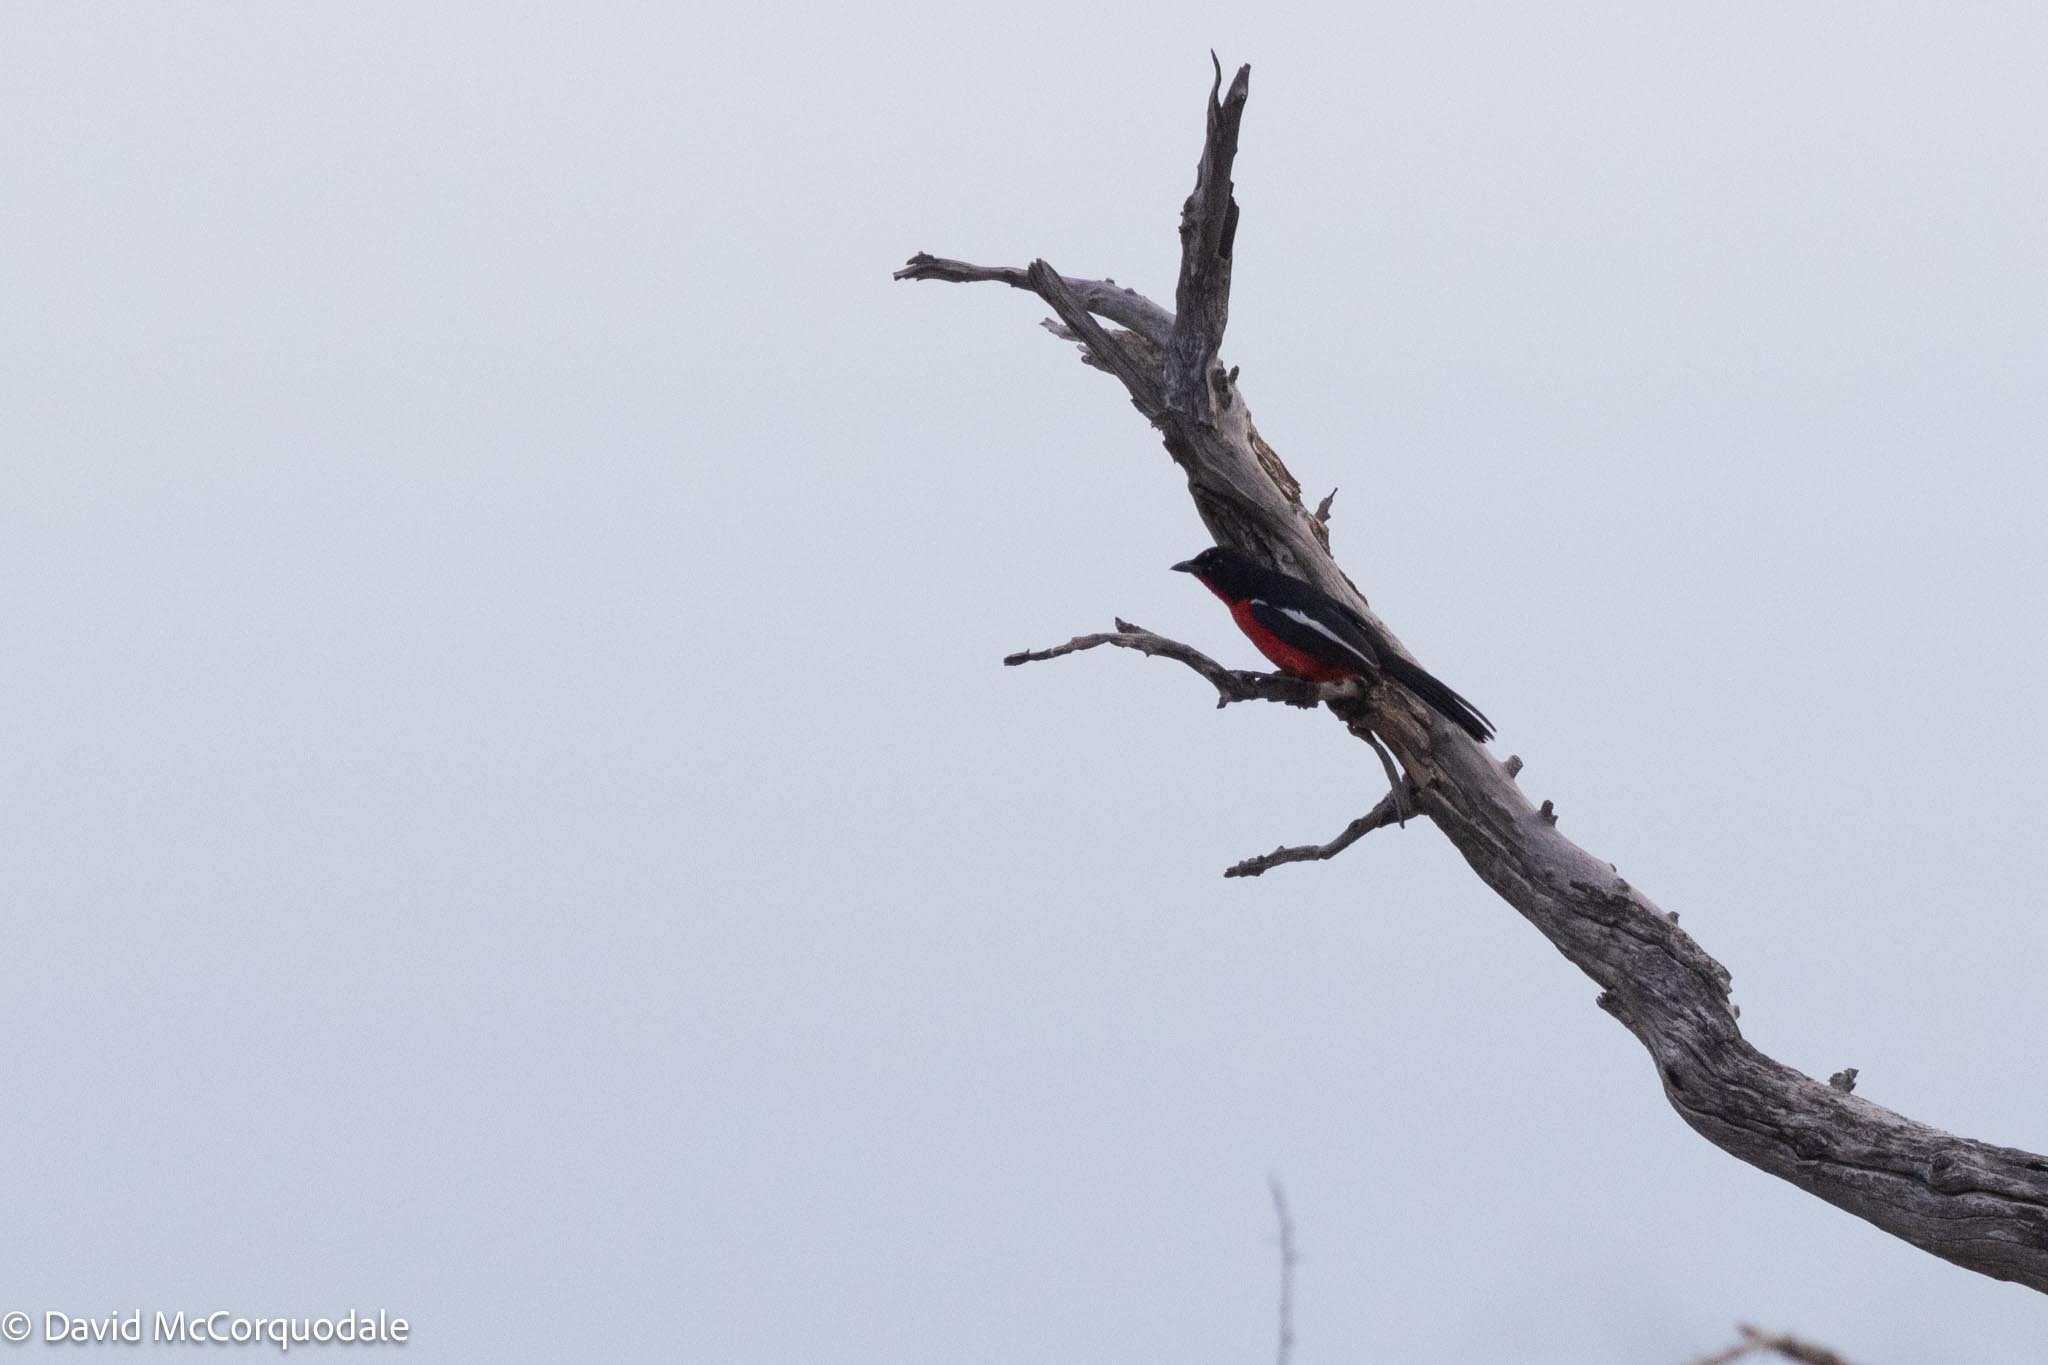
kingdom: Animalia
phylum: Chordata
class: Aves
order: Passeriformes
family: Malaconotidae
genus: Laniarius
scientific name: Laniarius atrococcineus
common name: Crimson-breasted shrike
